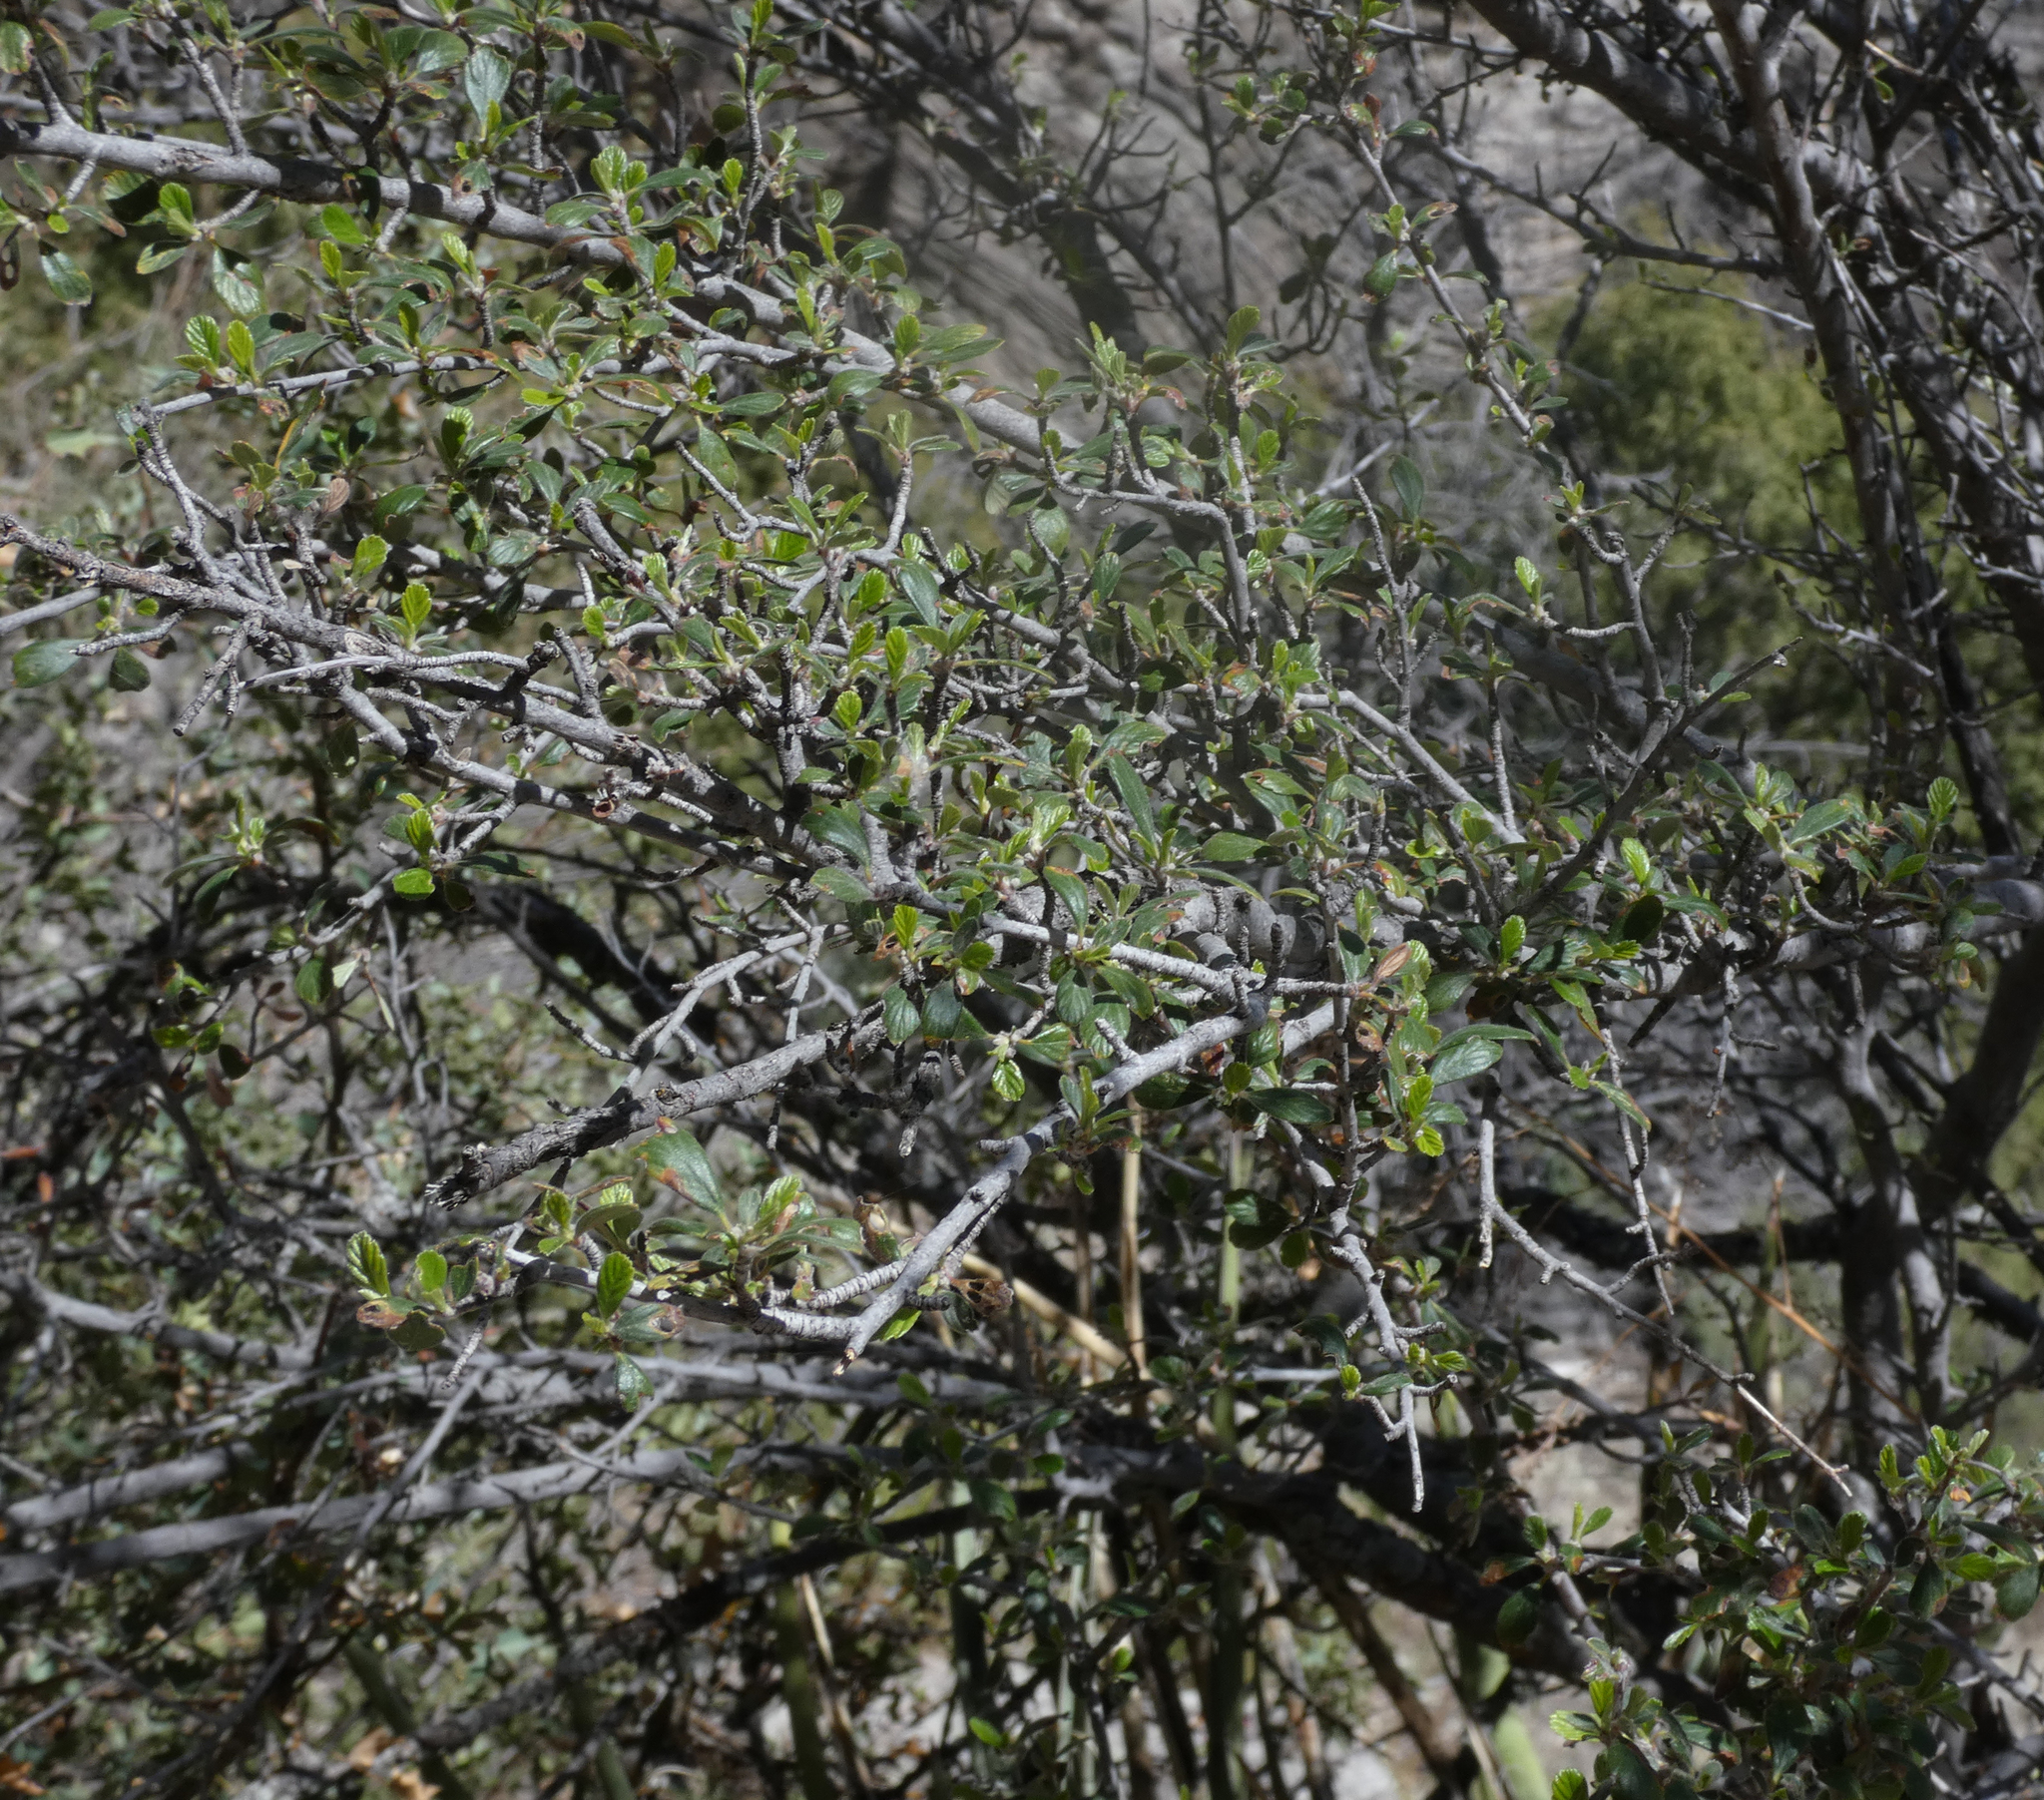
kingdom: Plantae
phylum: Tracheophyta
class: Magnoliopsida
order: Rosales
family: Rosaceae
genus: Cercocarpus
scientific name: Cercocarpus montanus
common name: Alder-leaf cercocarpus
